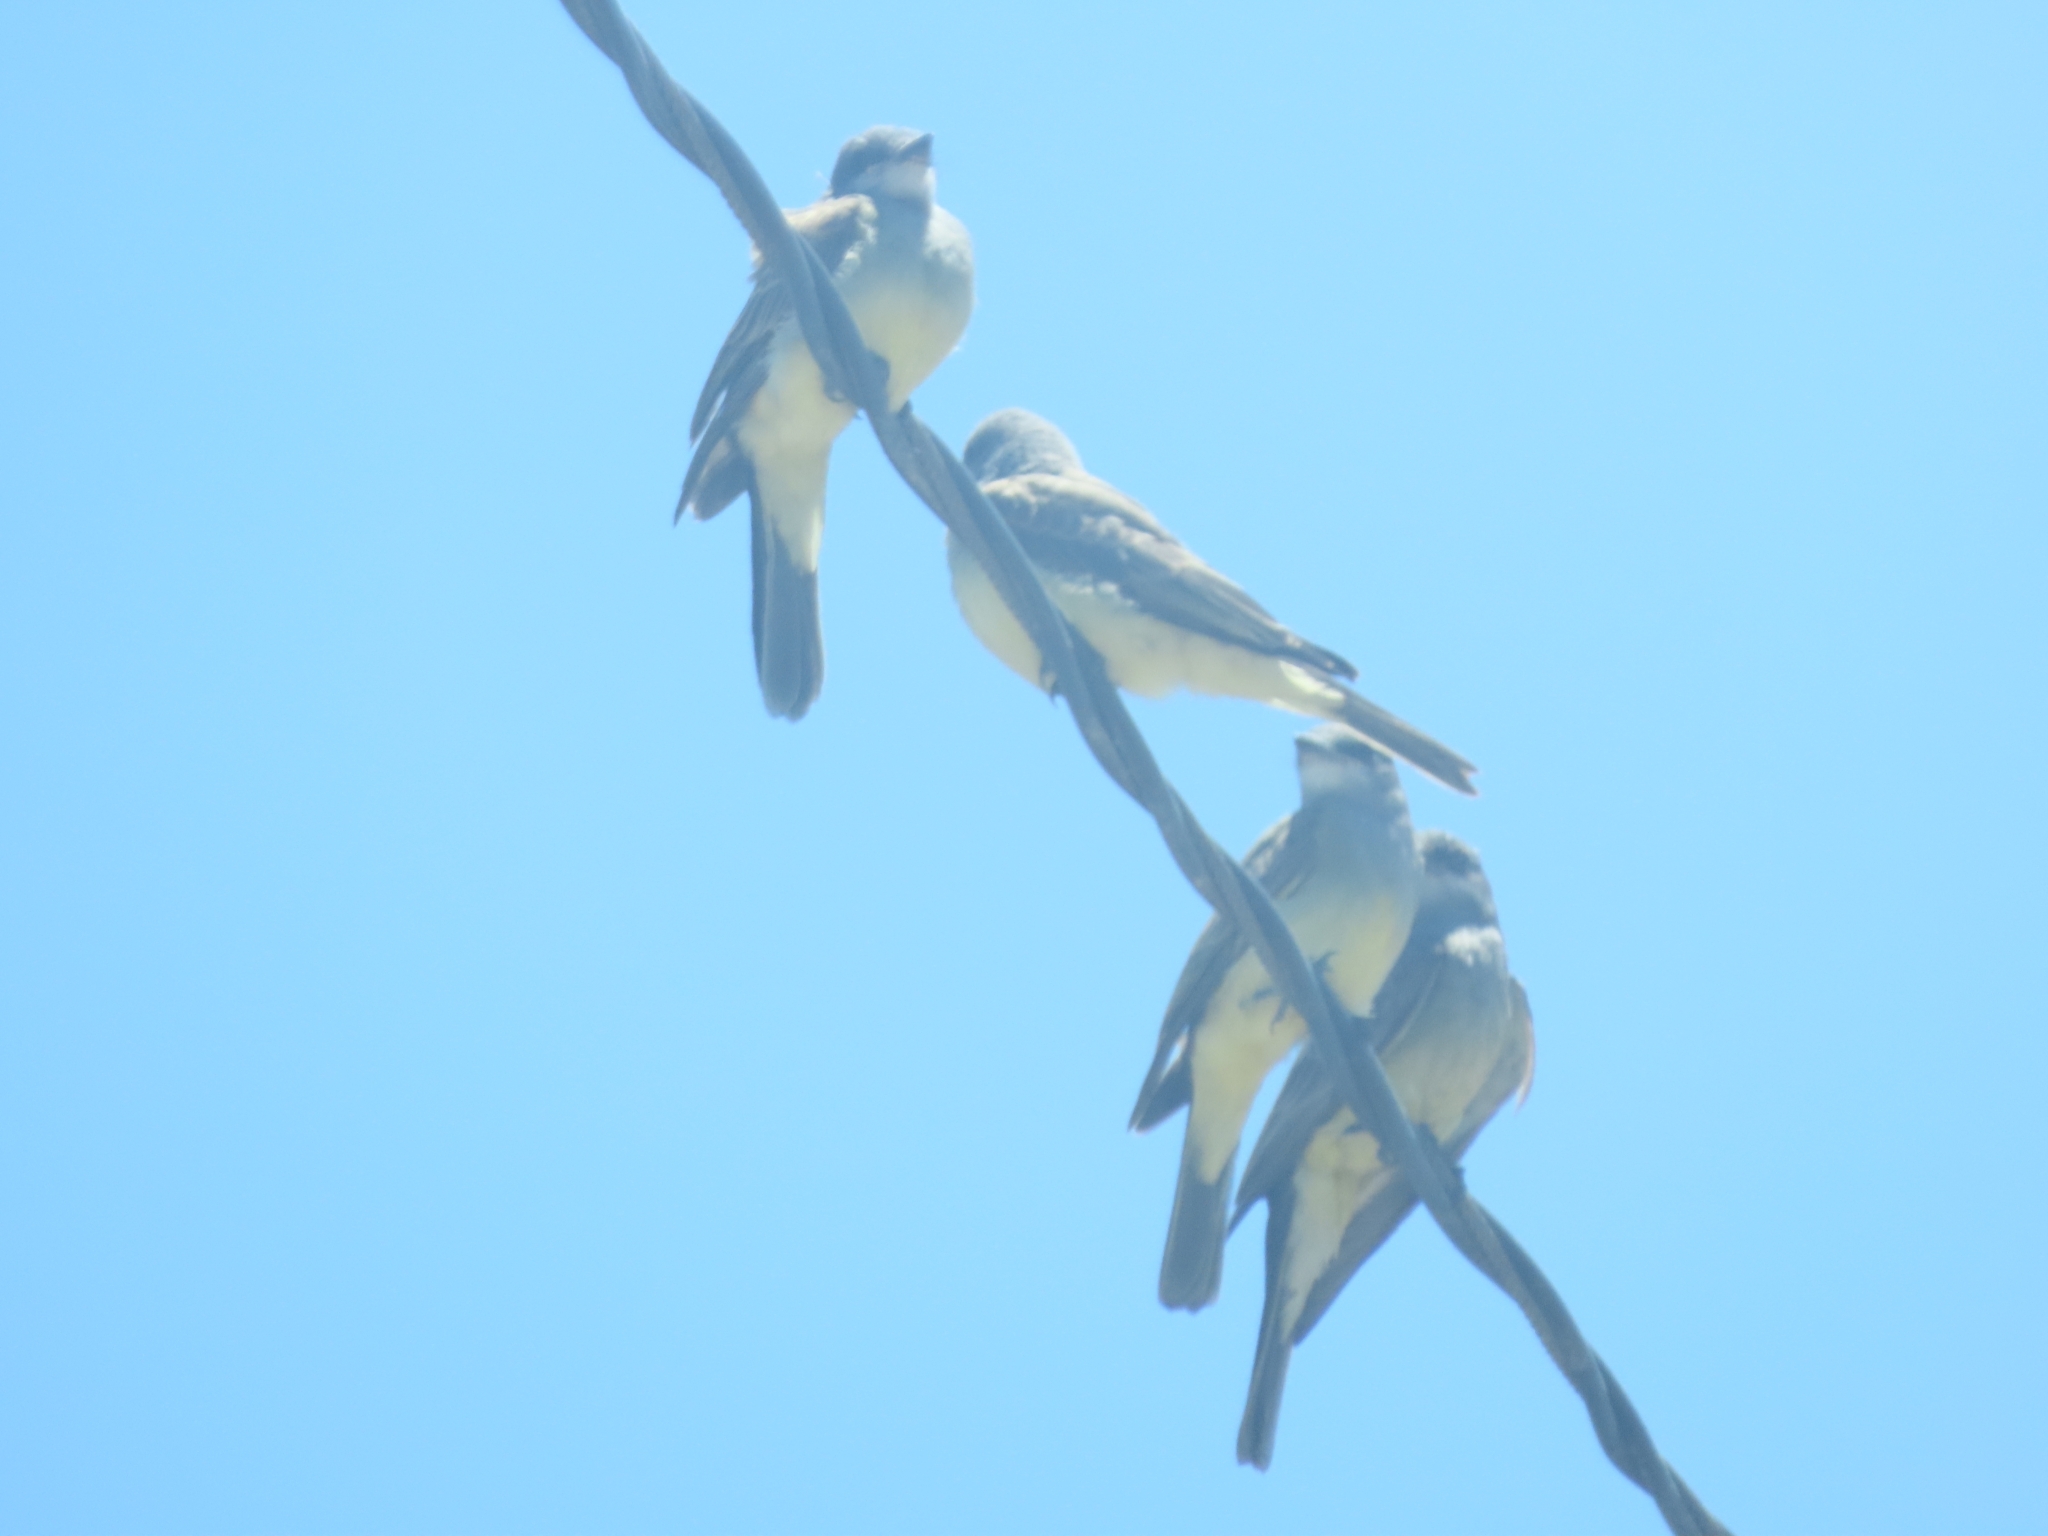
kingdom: Animalia
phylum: Chordata
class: Aves
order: Passeriformes
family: Tyrannidae
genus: Tyrannus
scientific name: Tyrannus vociferans
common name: Cassin's kingbird
